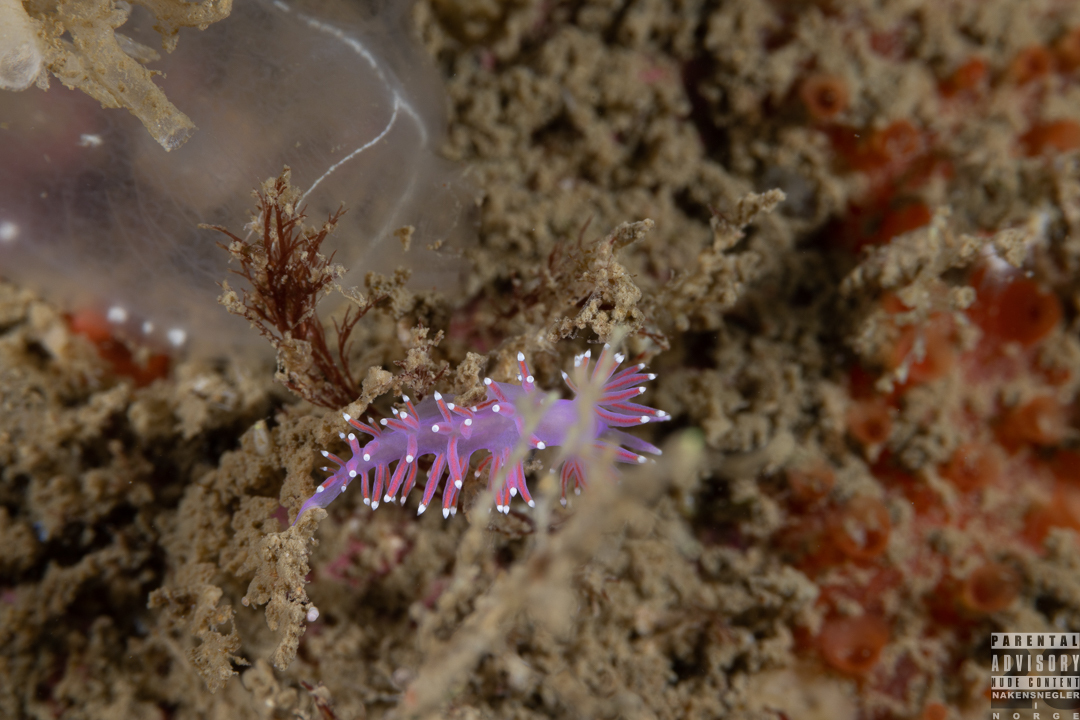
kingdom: Animalia
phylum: Mollusca
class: Gastropoda
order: Nudibranchia
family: Flabellinidae
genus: Edmundsella
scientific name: Edmundsella pedata
